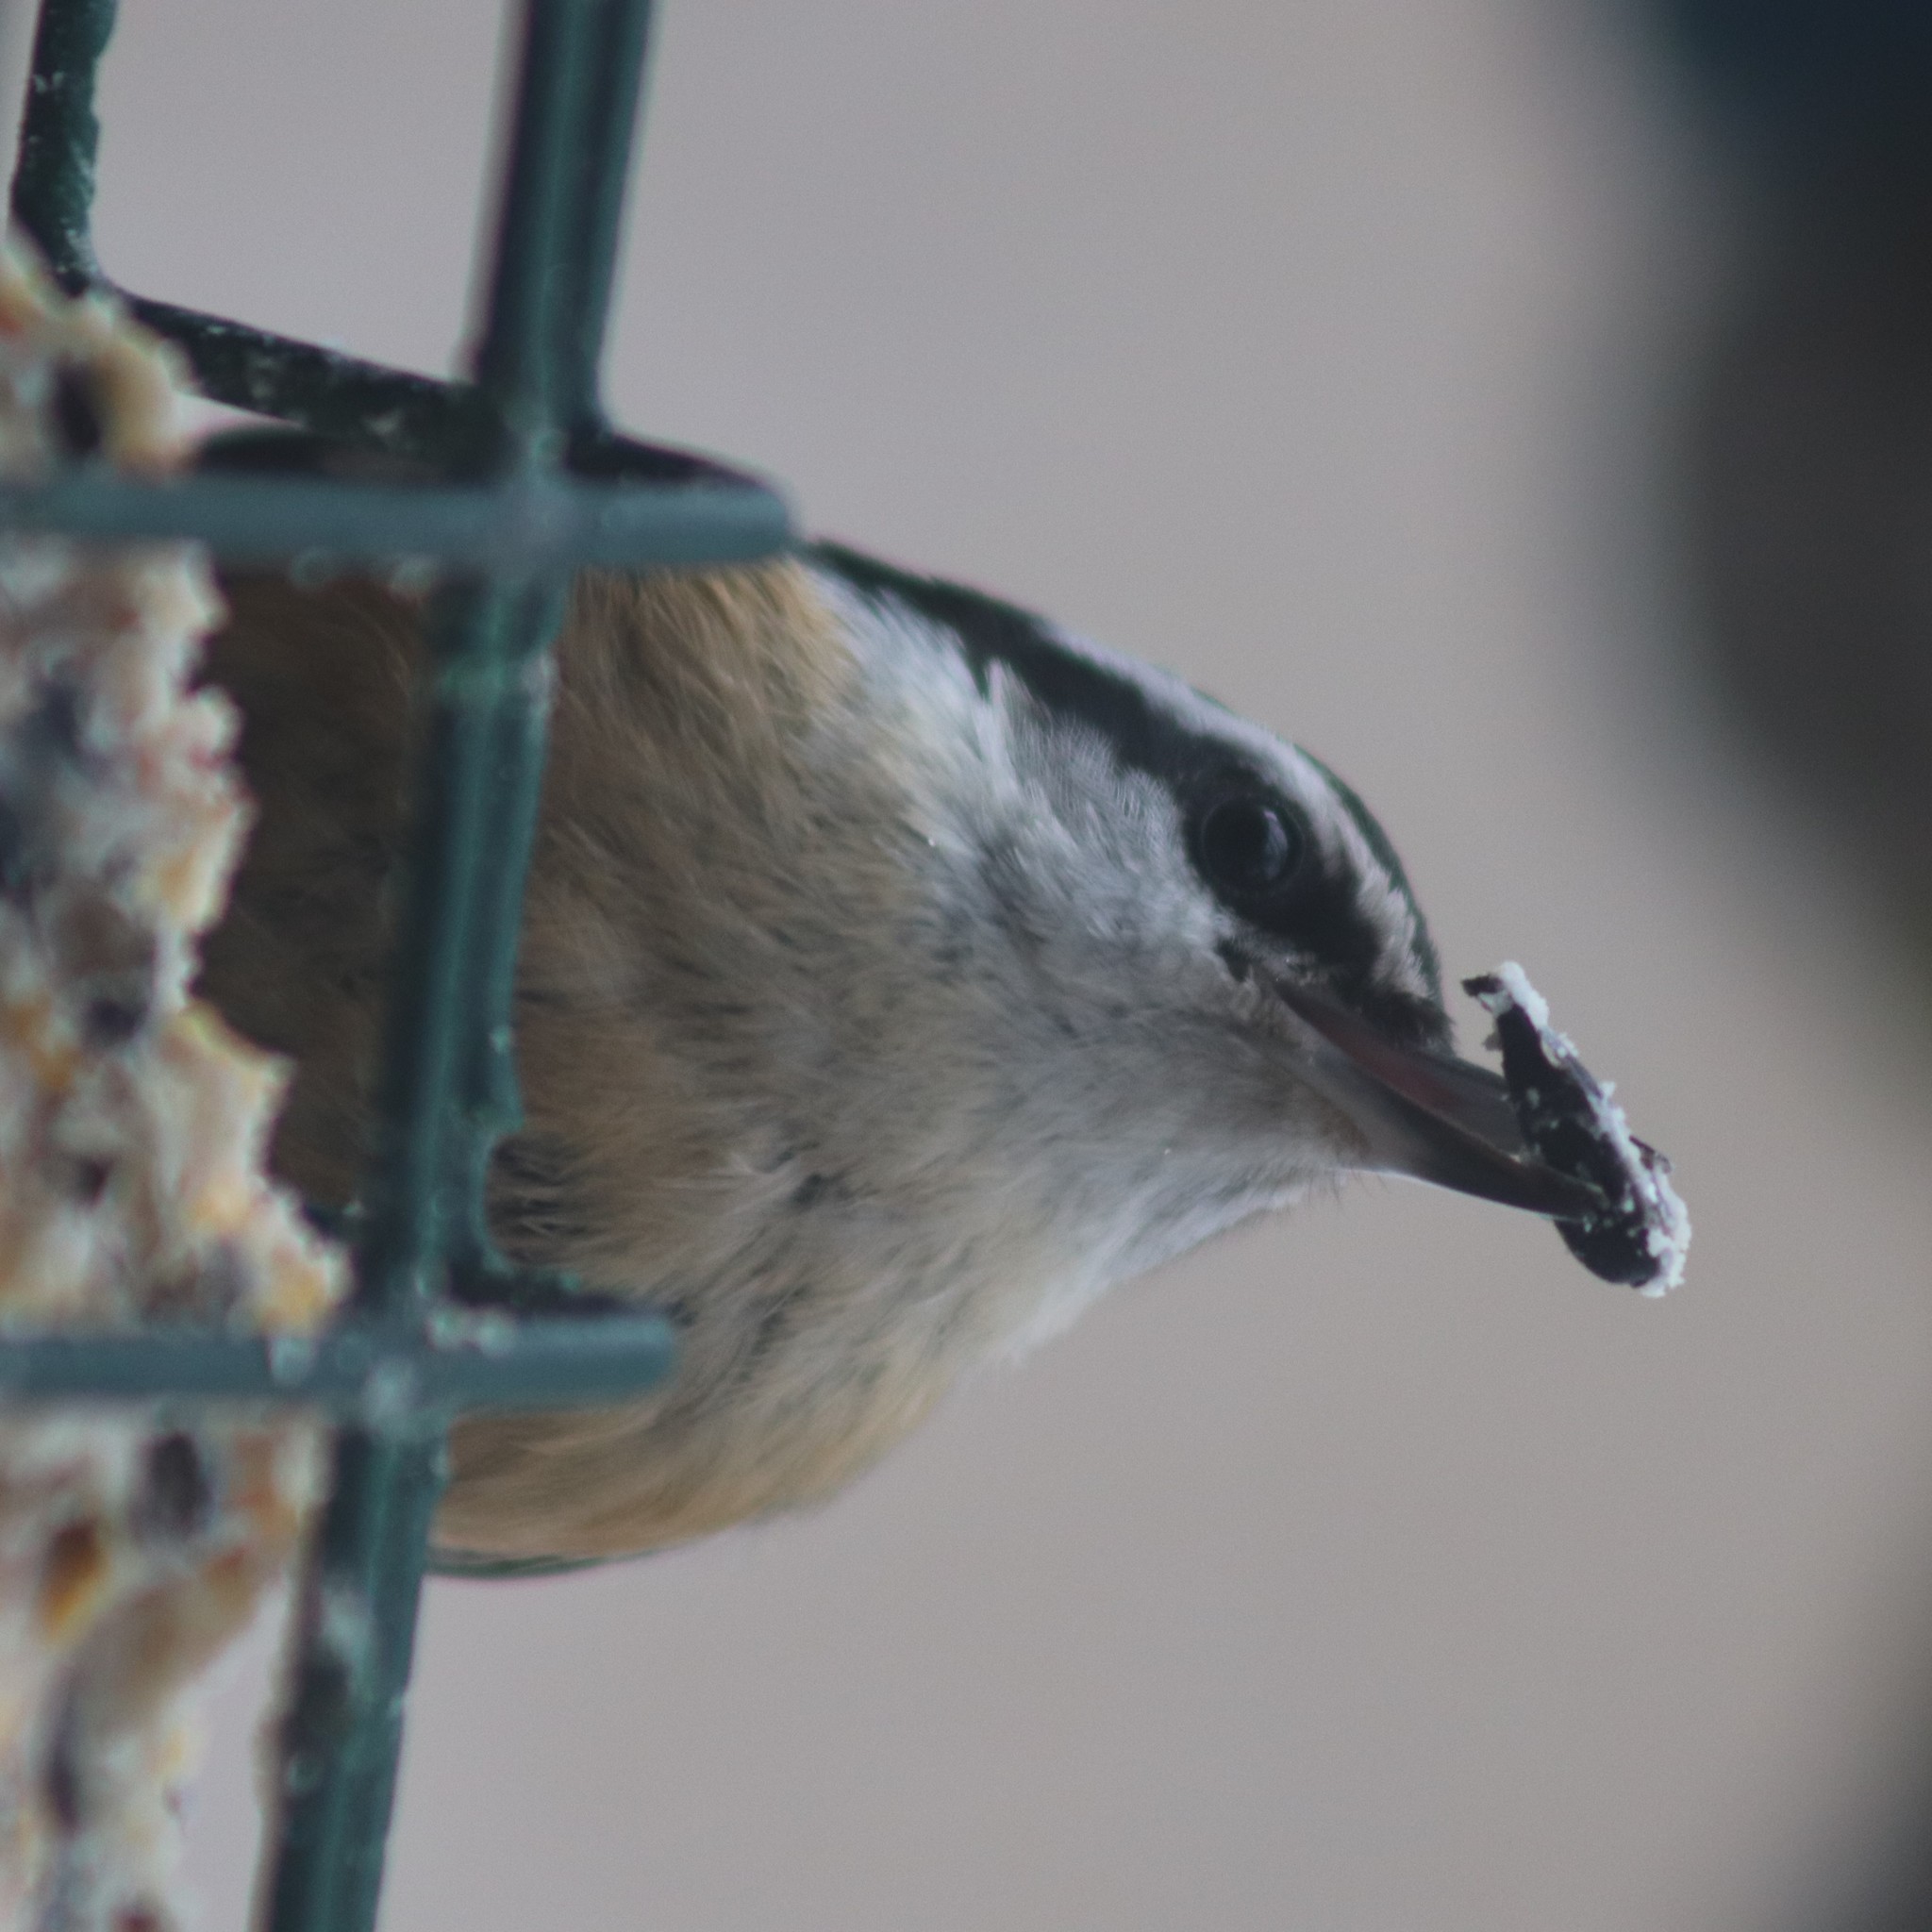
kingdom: Animalia
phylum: Chordata
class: Aves
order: Passeriformes
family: Sittidae
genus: Sitta
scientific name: Sitta canadensis
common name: Red-breasted nuthatch
